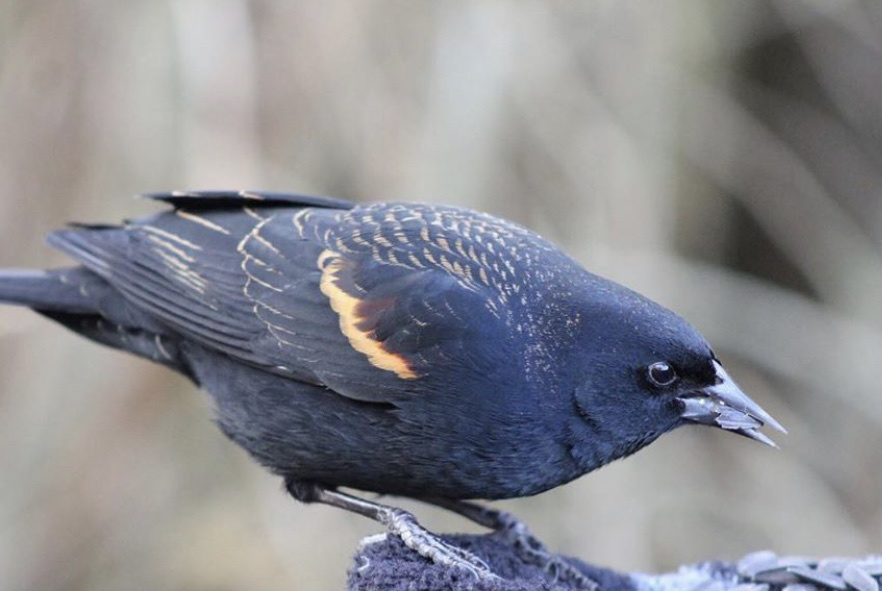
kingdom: Animalia
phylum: Chordata
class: Aves
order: Passeriformes
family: Icteridae
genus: Agelaius
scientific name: Agelaius phoeniceus
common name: Red-winged blackbird
